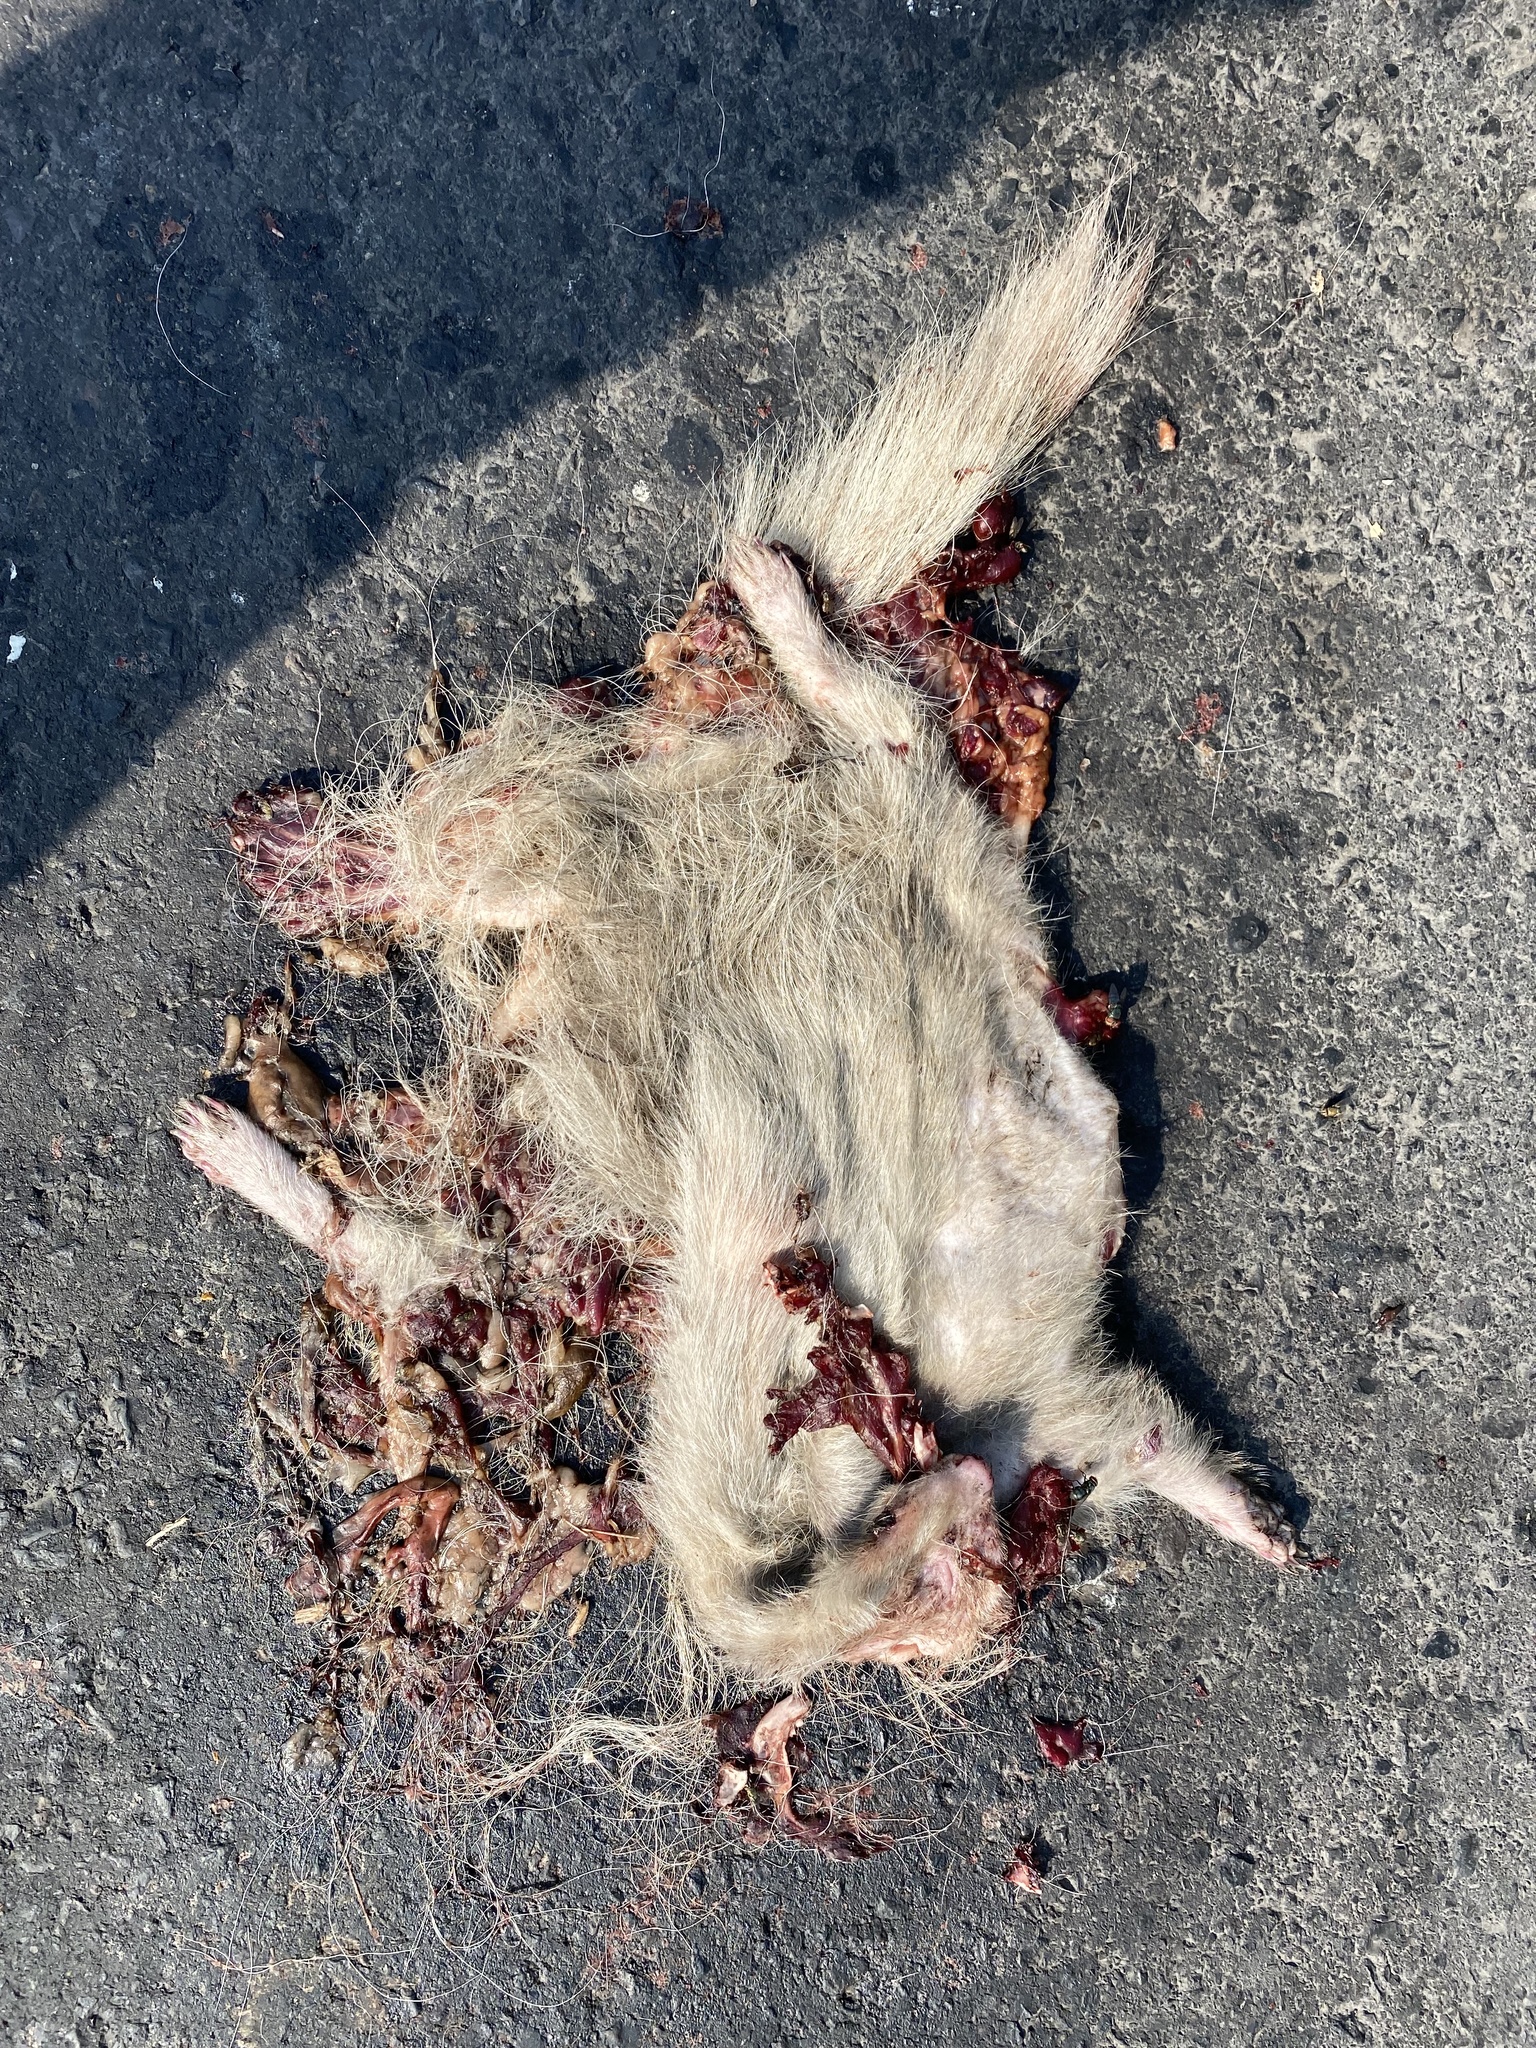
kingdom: Animalia
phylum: Chordata
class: Mammalia
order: Carnivora
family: Mephitidae
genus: Mephitis
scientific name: Mephitis macroura
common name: Hooded skunk
